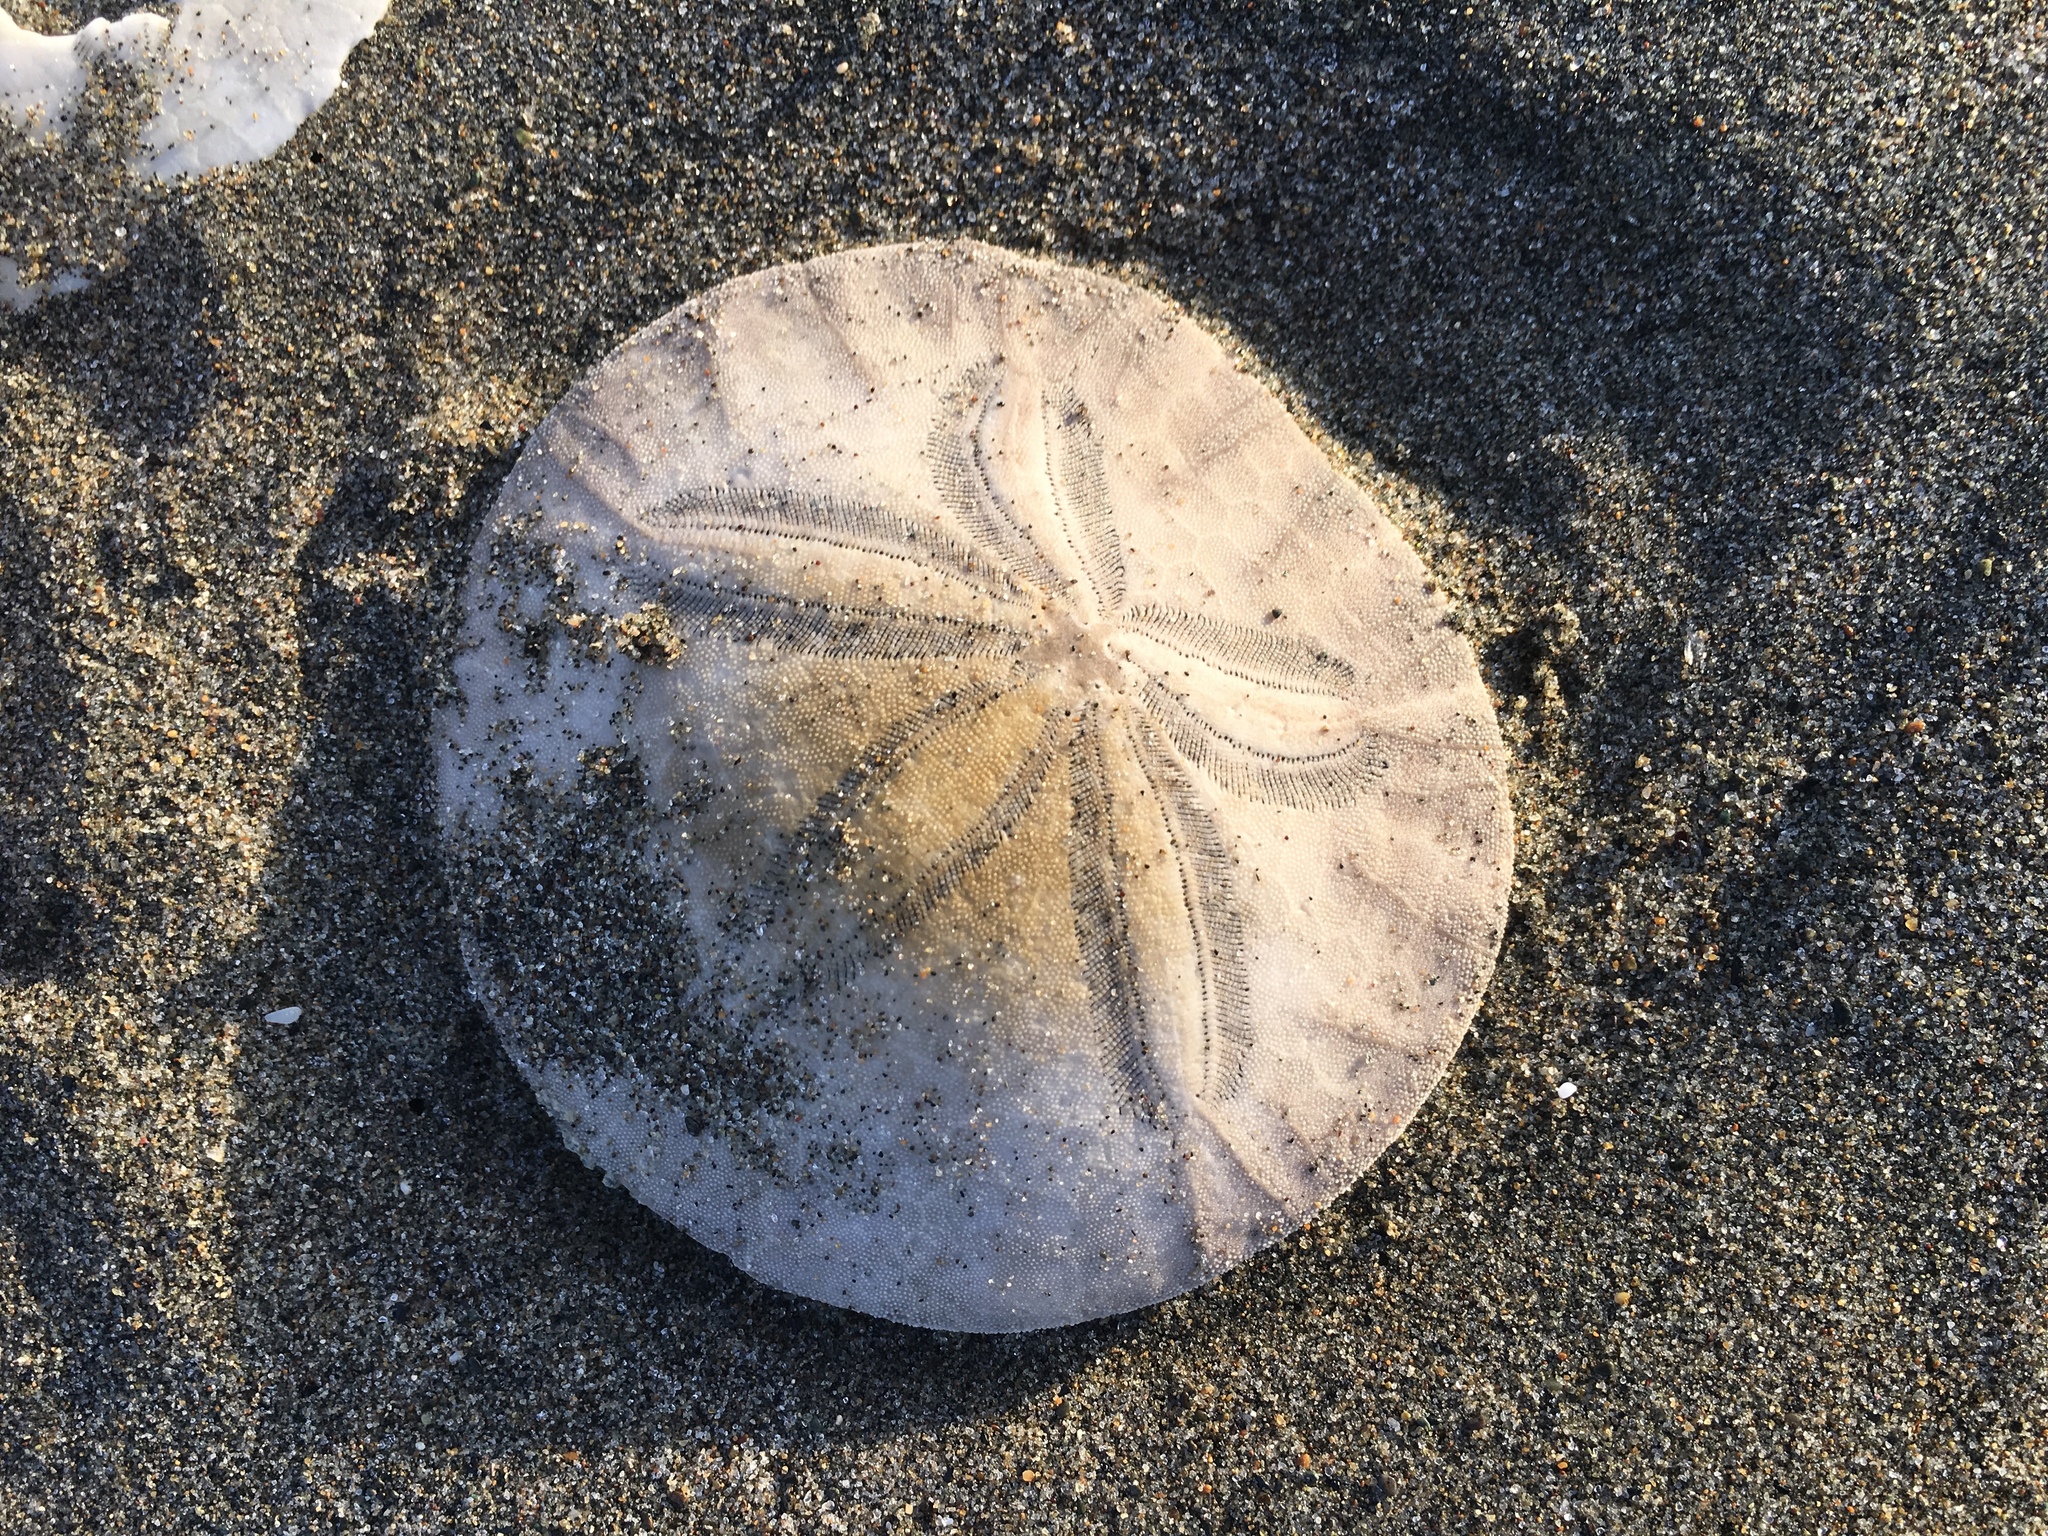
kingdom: Animalia
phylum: Echinodermata
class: Echinoidea
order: Echinolampadacea
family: Dendrasteridae
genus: Dendraster
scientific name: Dendraster excentricus
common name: Eccentric sand dollar sea urchin
